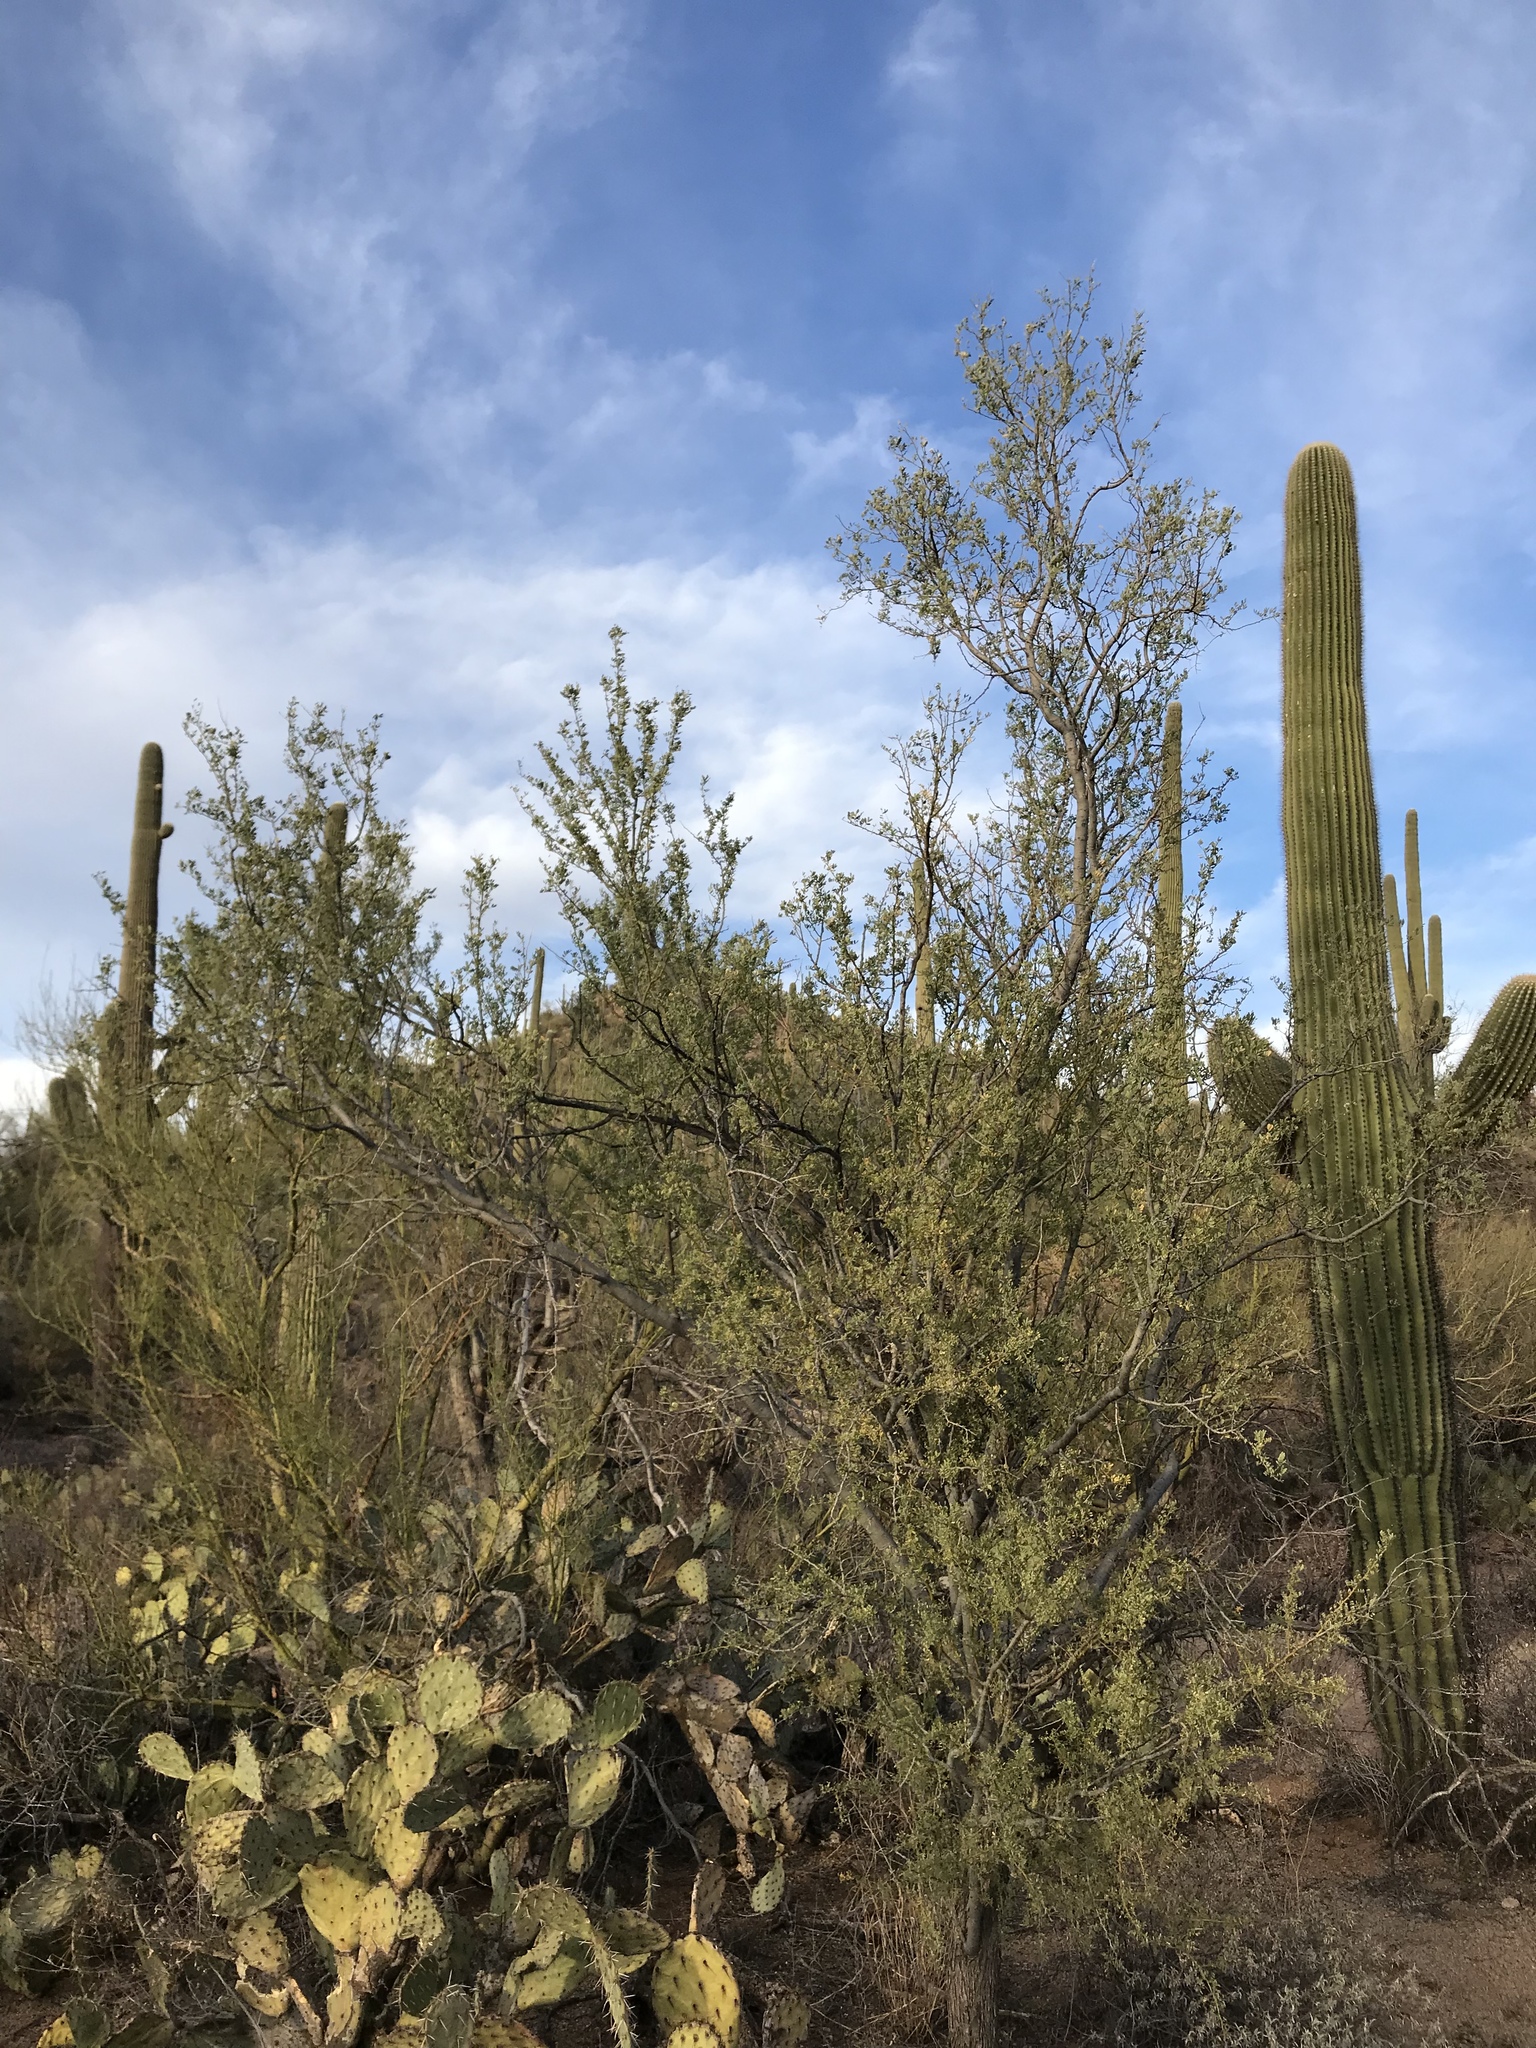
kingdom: Plantae
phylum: Tracheophyta
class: Magnoliopsida
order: Fabales
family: Fabaceae
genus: Olneya
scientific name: Olneya tesota
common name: Desert ironwood
